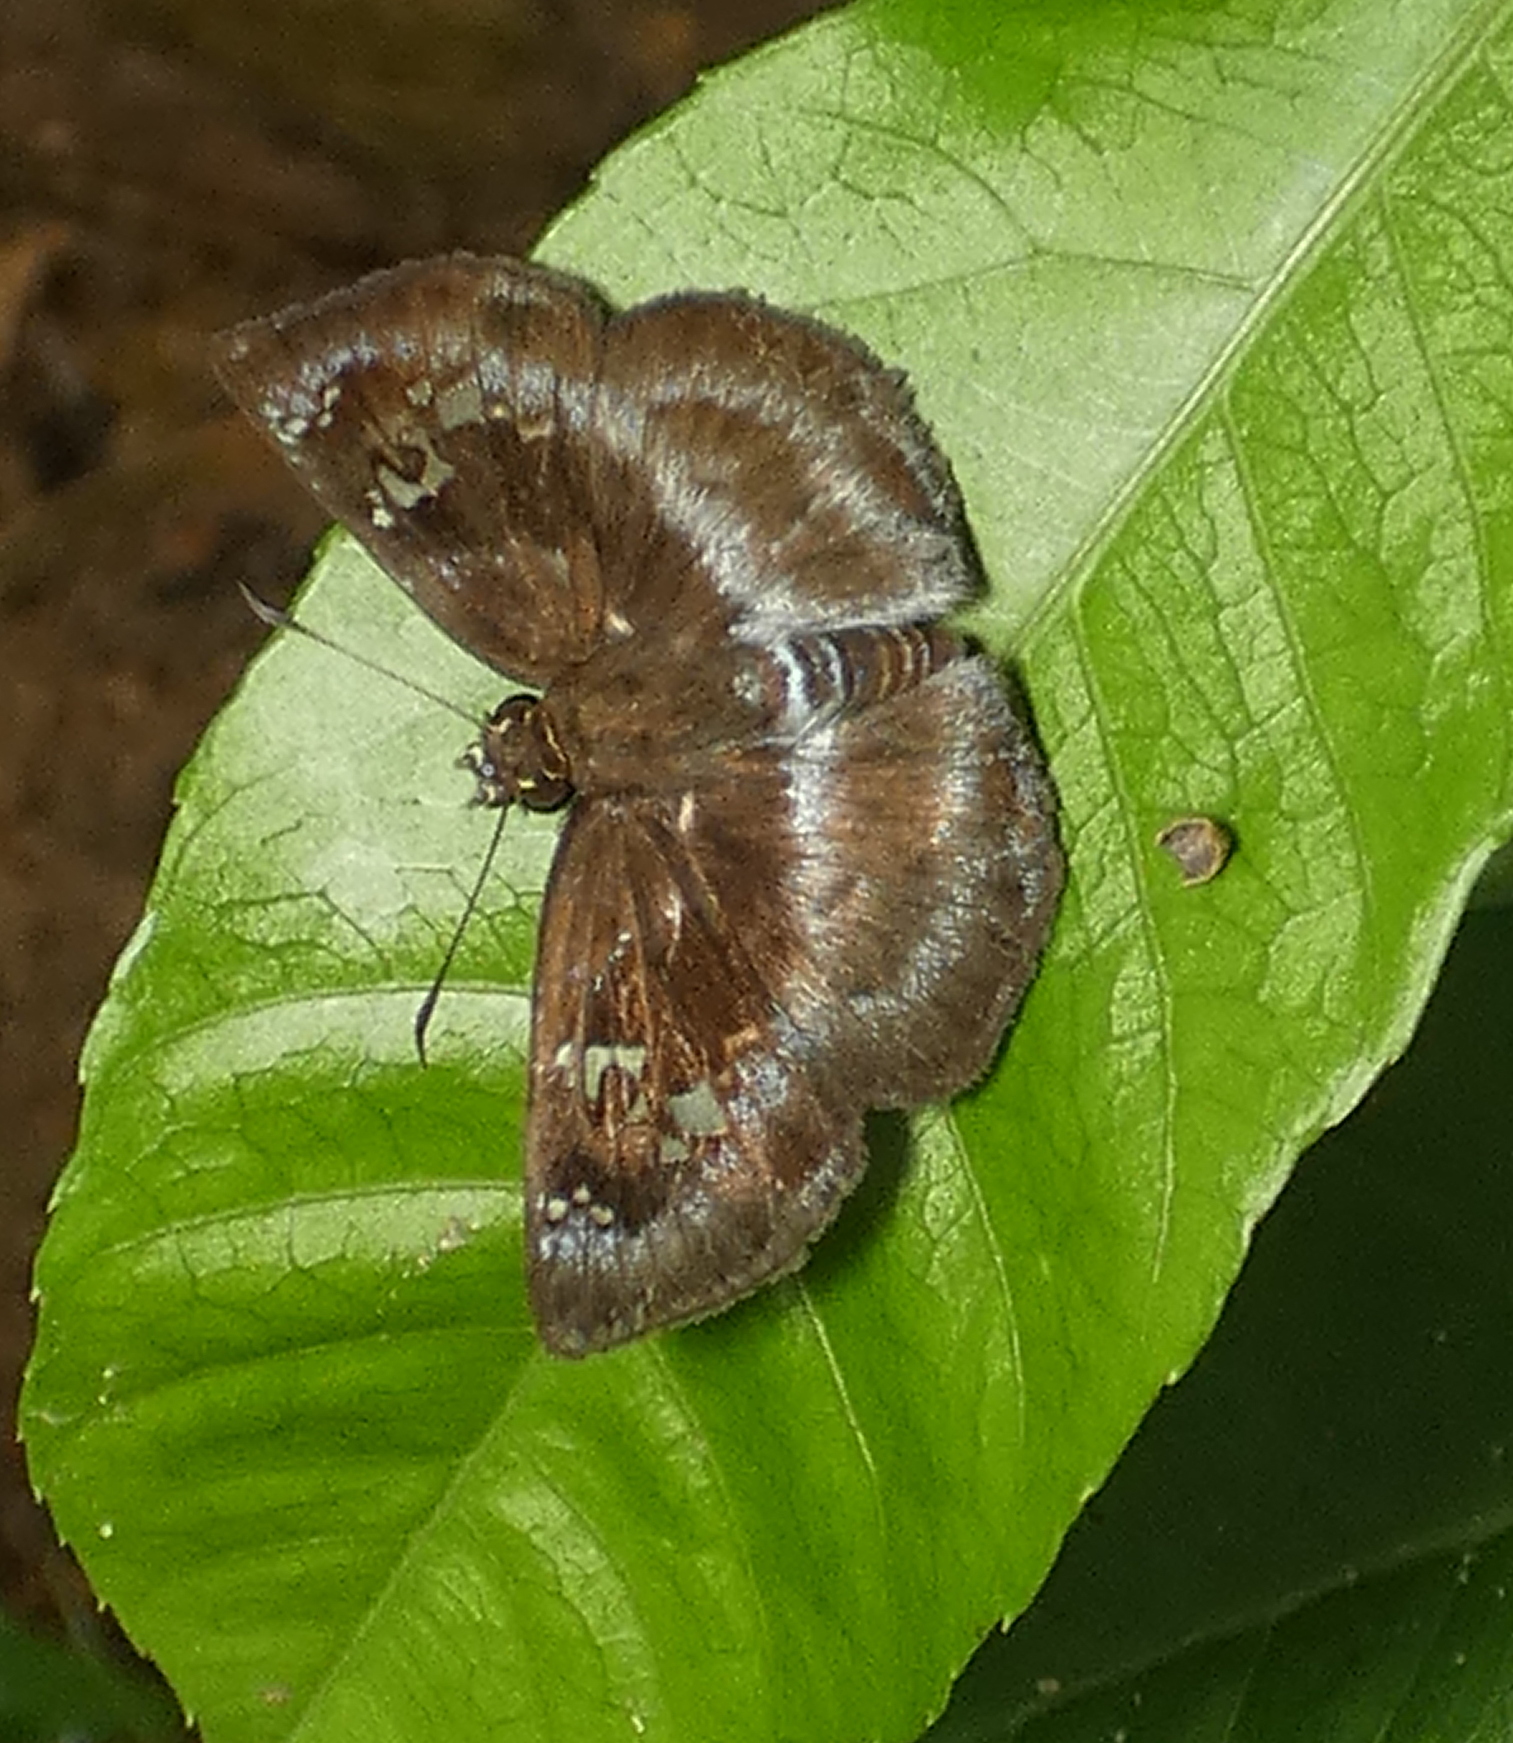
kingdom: Animalia
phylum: Arthropoda
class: Insecta
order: Lepidoptera
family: Hesperiidae
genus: Quadrus
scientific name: Quadrus cerialis
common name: Common blue-skipper
